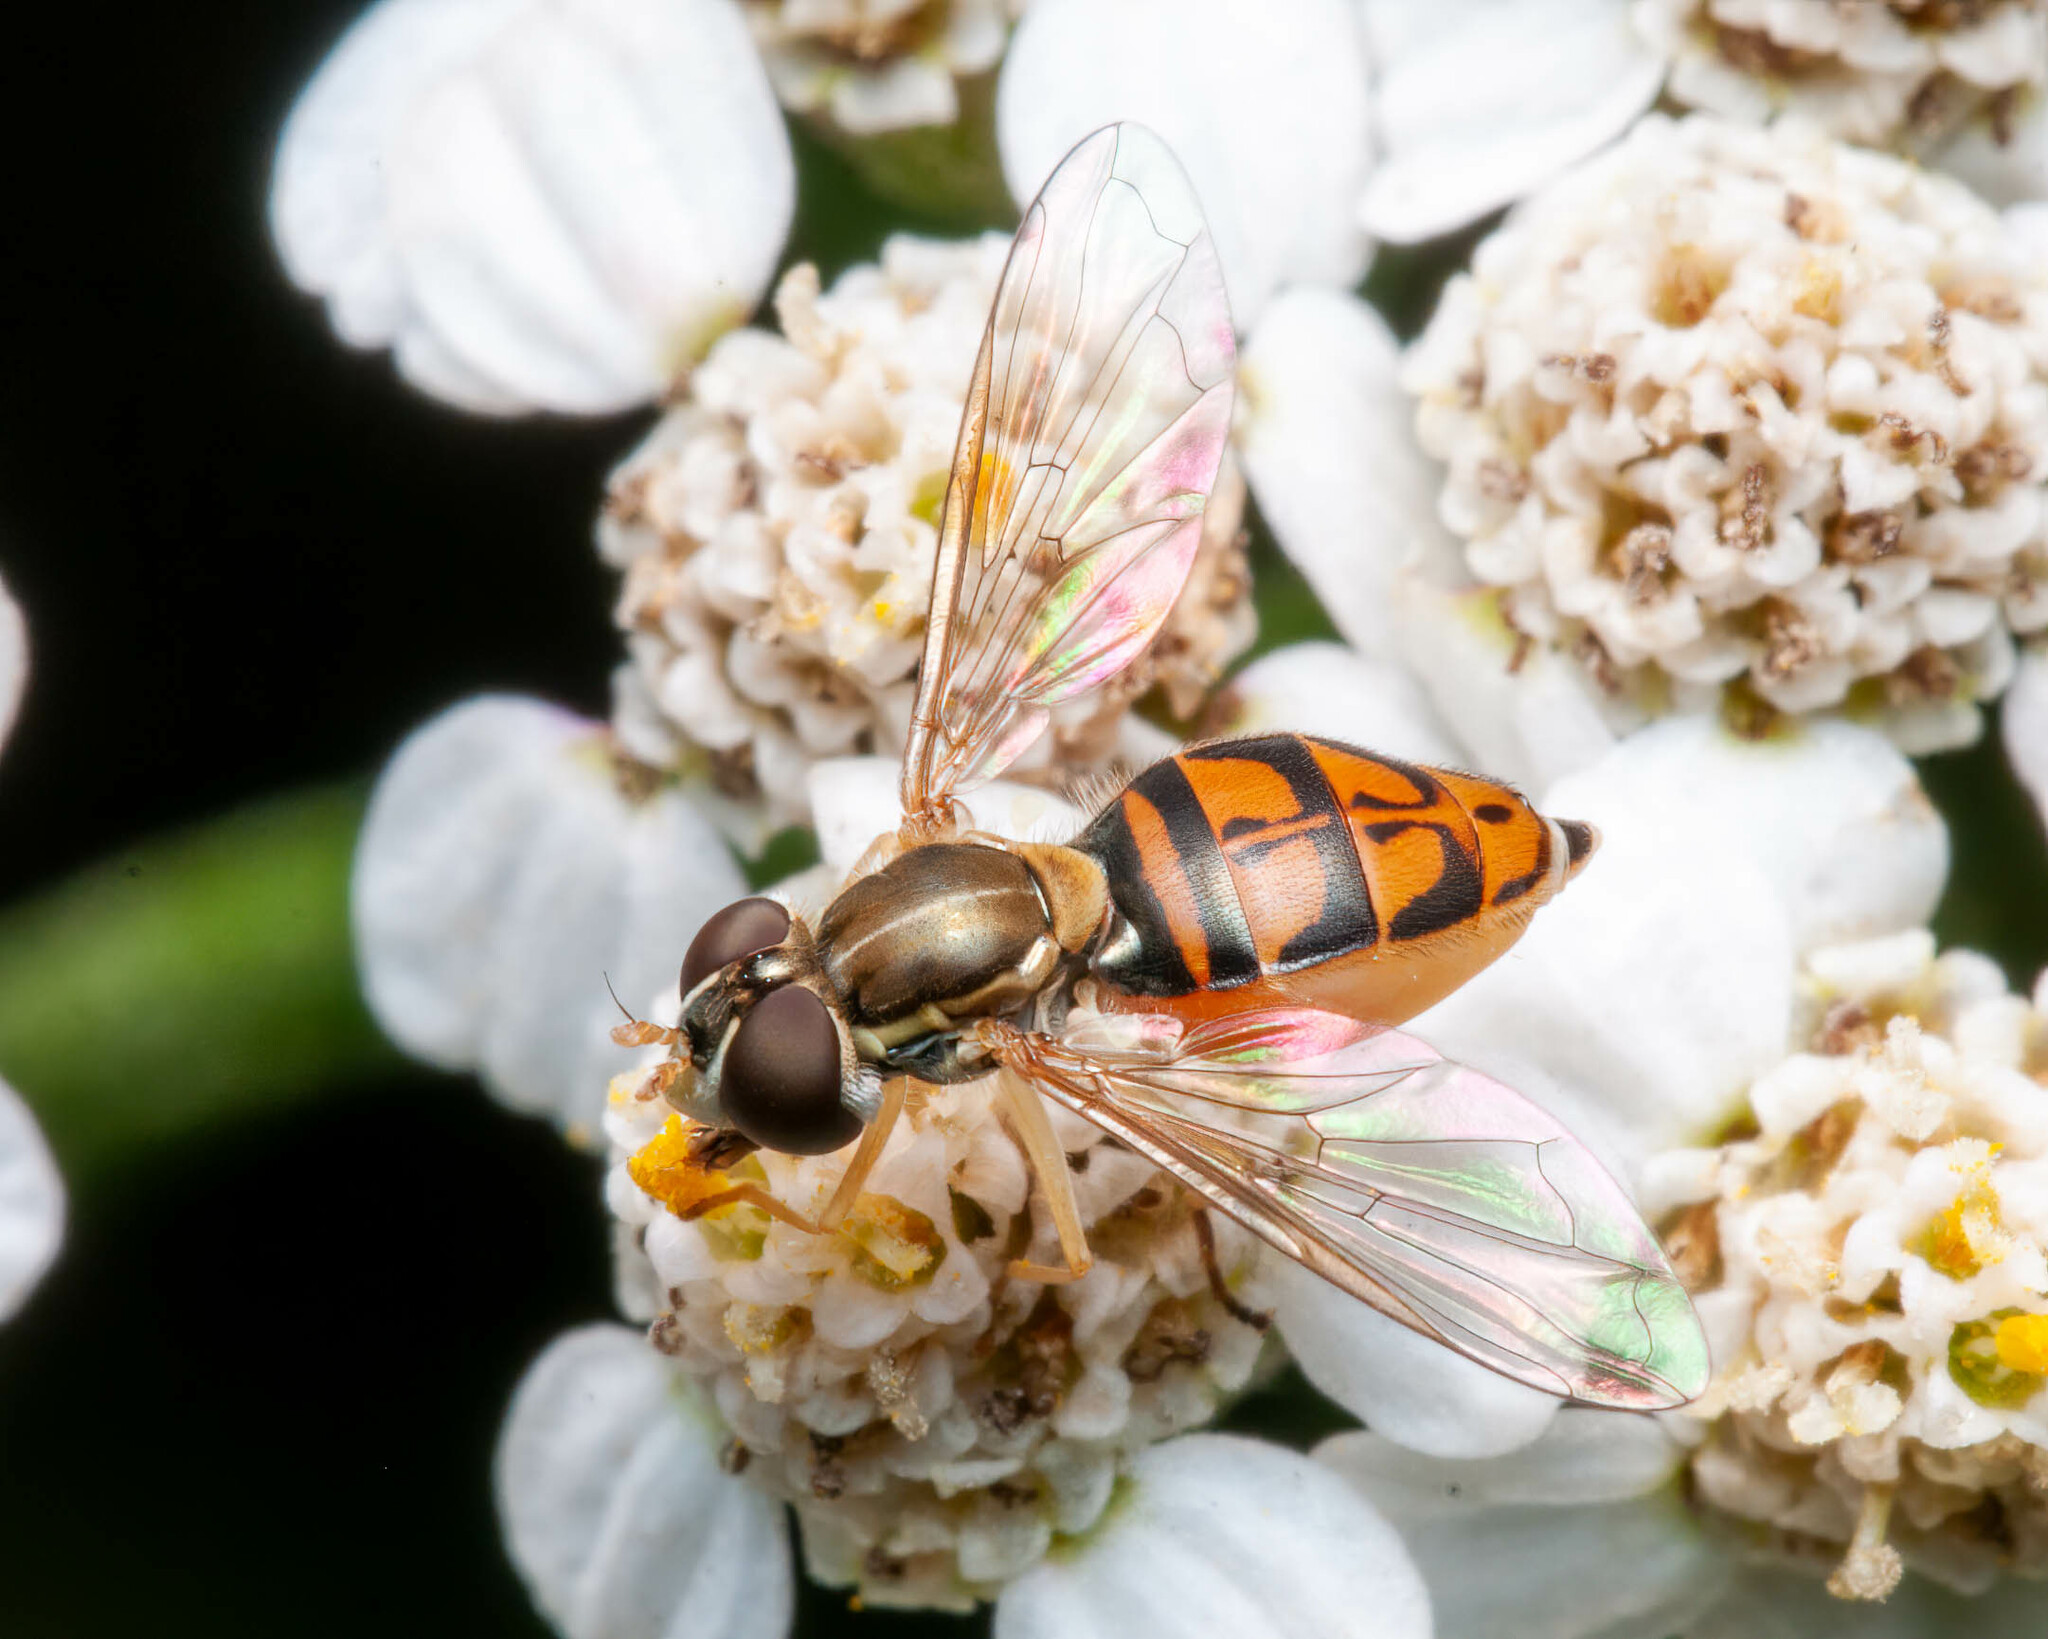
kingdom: Animalia
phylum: Arthropoda
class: Insecta
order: Diptera
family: Syrphidae
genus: Toxomerus
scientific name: Toxomerus marginatus
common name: Syrphid fly
